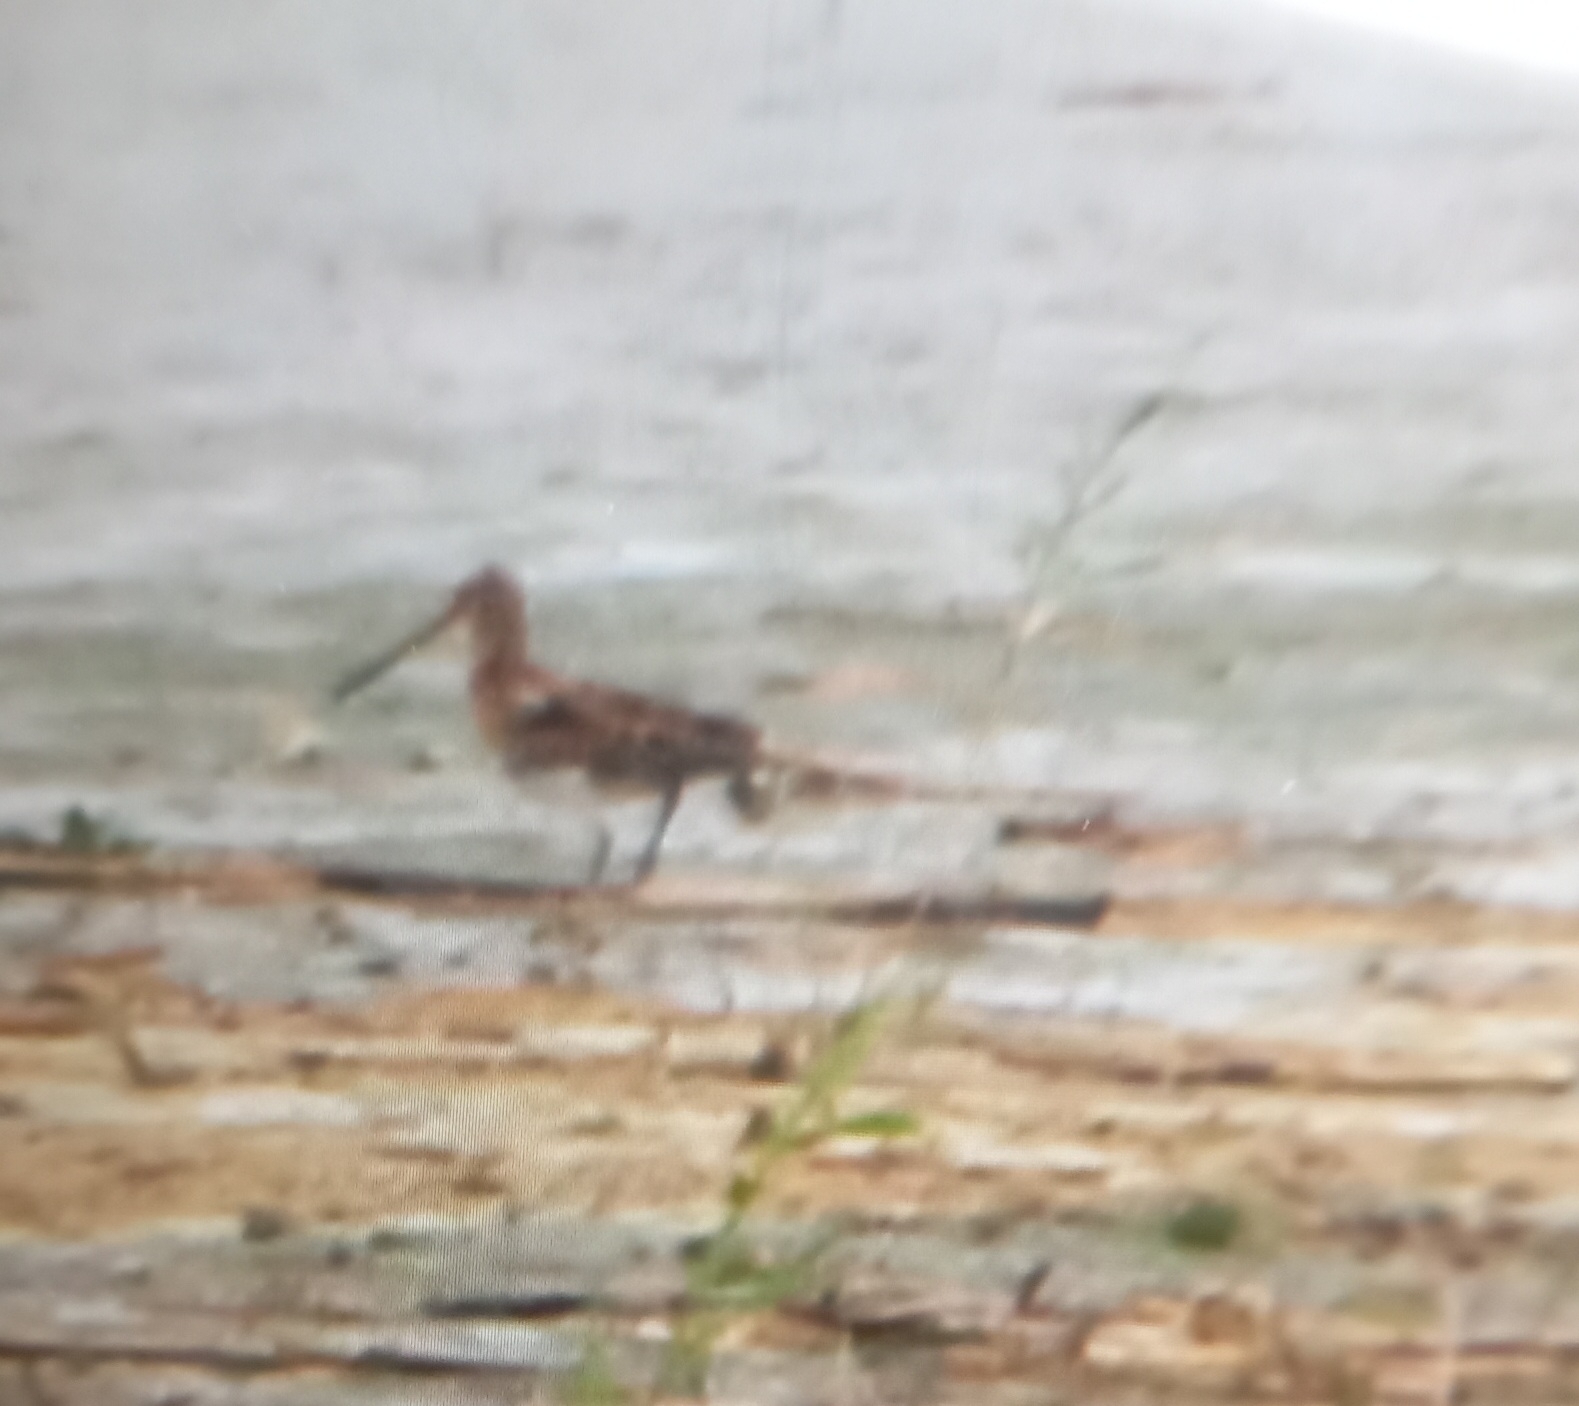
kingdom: Animalia
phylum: Chordata
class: Aves
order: Charadriiformes
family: Scolopacidae
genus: Gallinago
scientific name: Gallinago gallinago
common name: Common snipe
